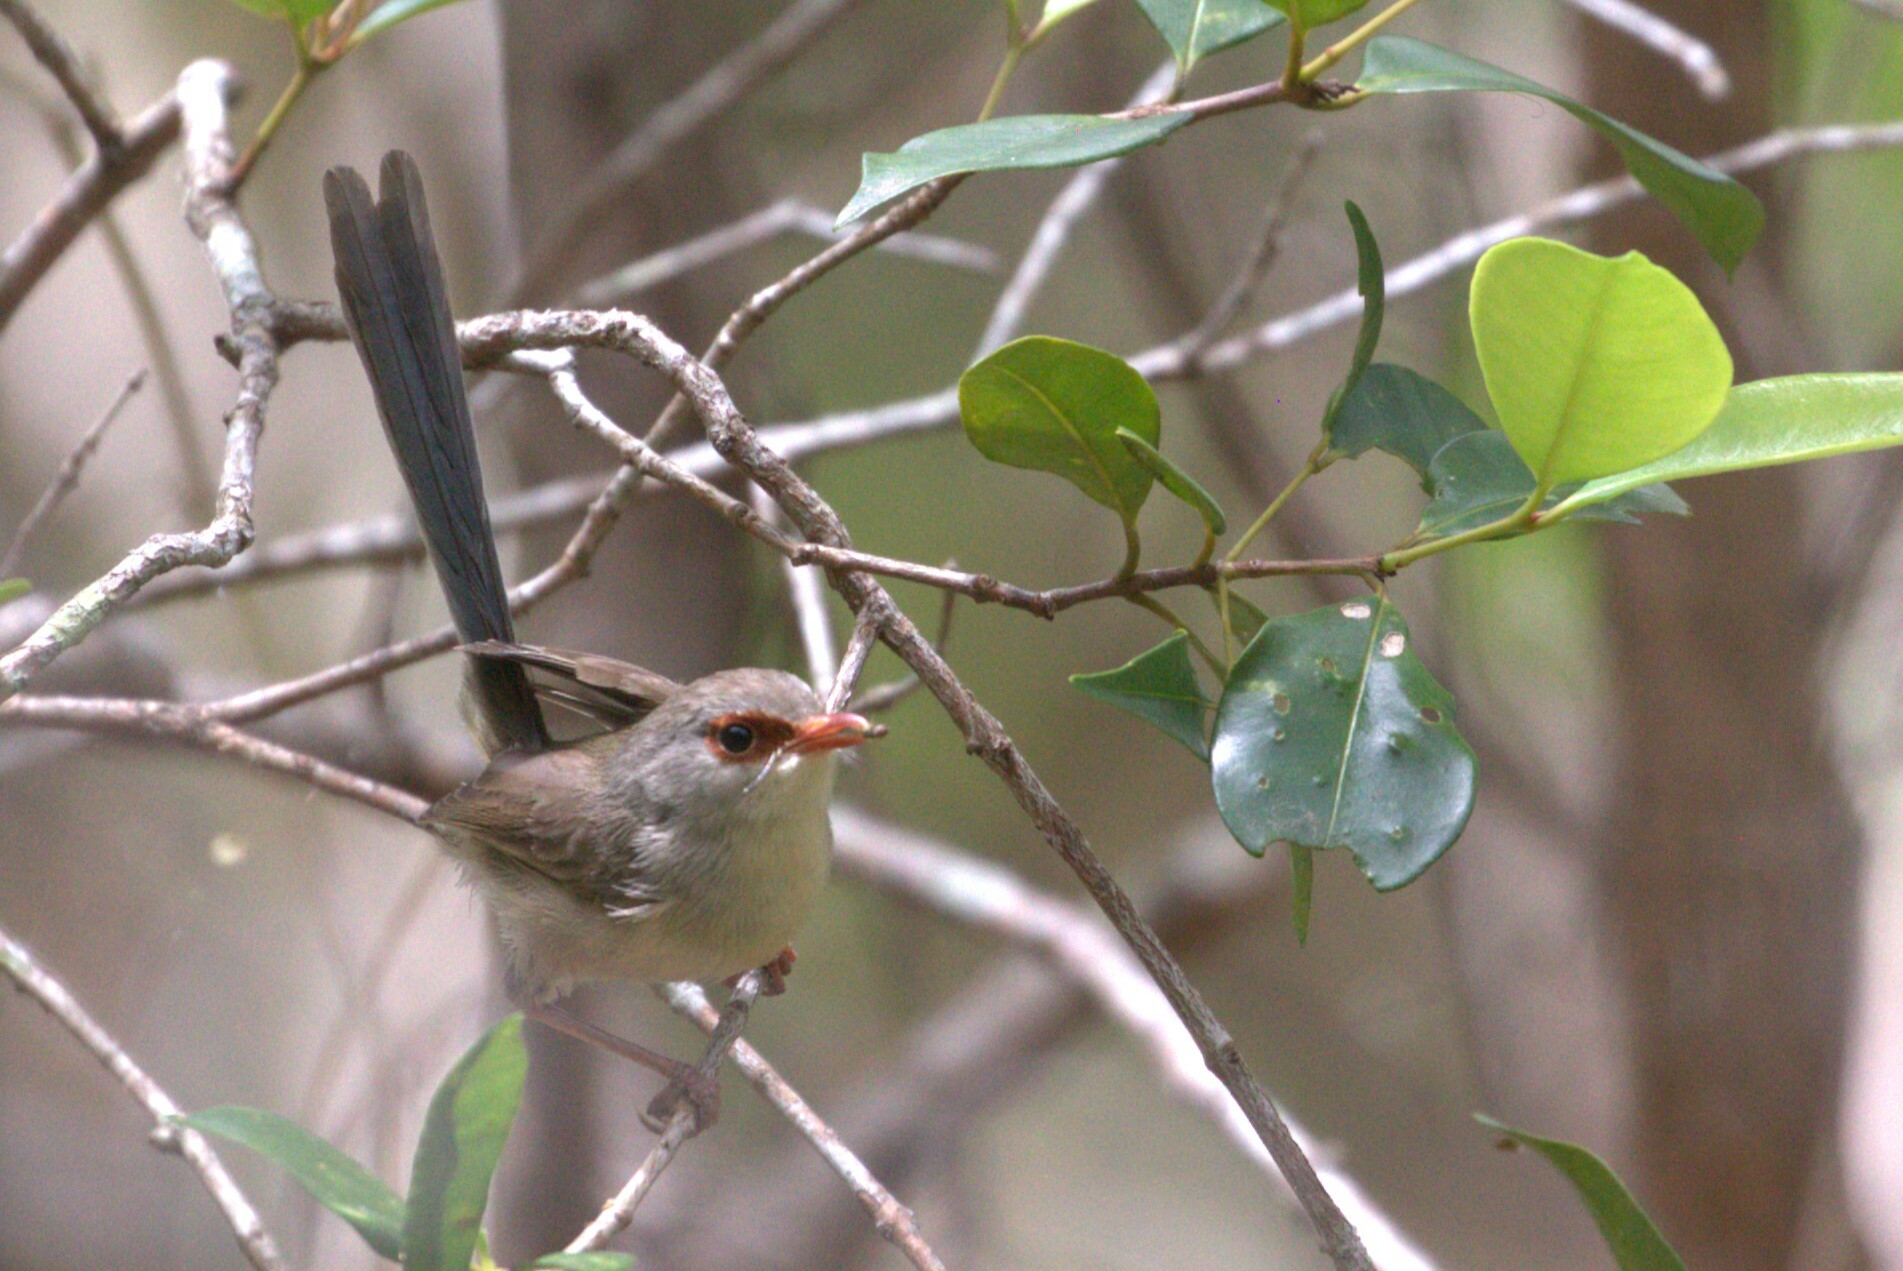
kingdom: Animalia
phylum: Chordata
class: Aves
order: Passeriformes
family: Maluridae
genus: Malurus
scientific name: Malurus lamberti
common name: Variegated fairywren
